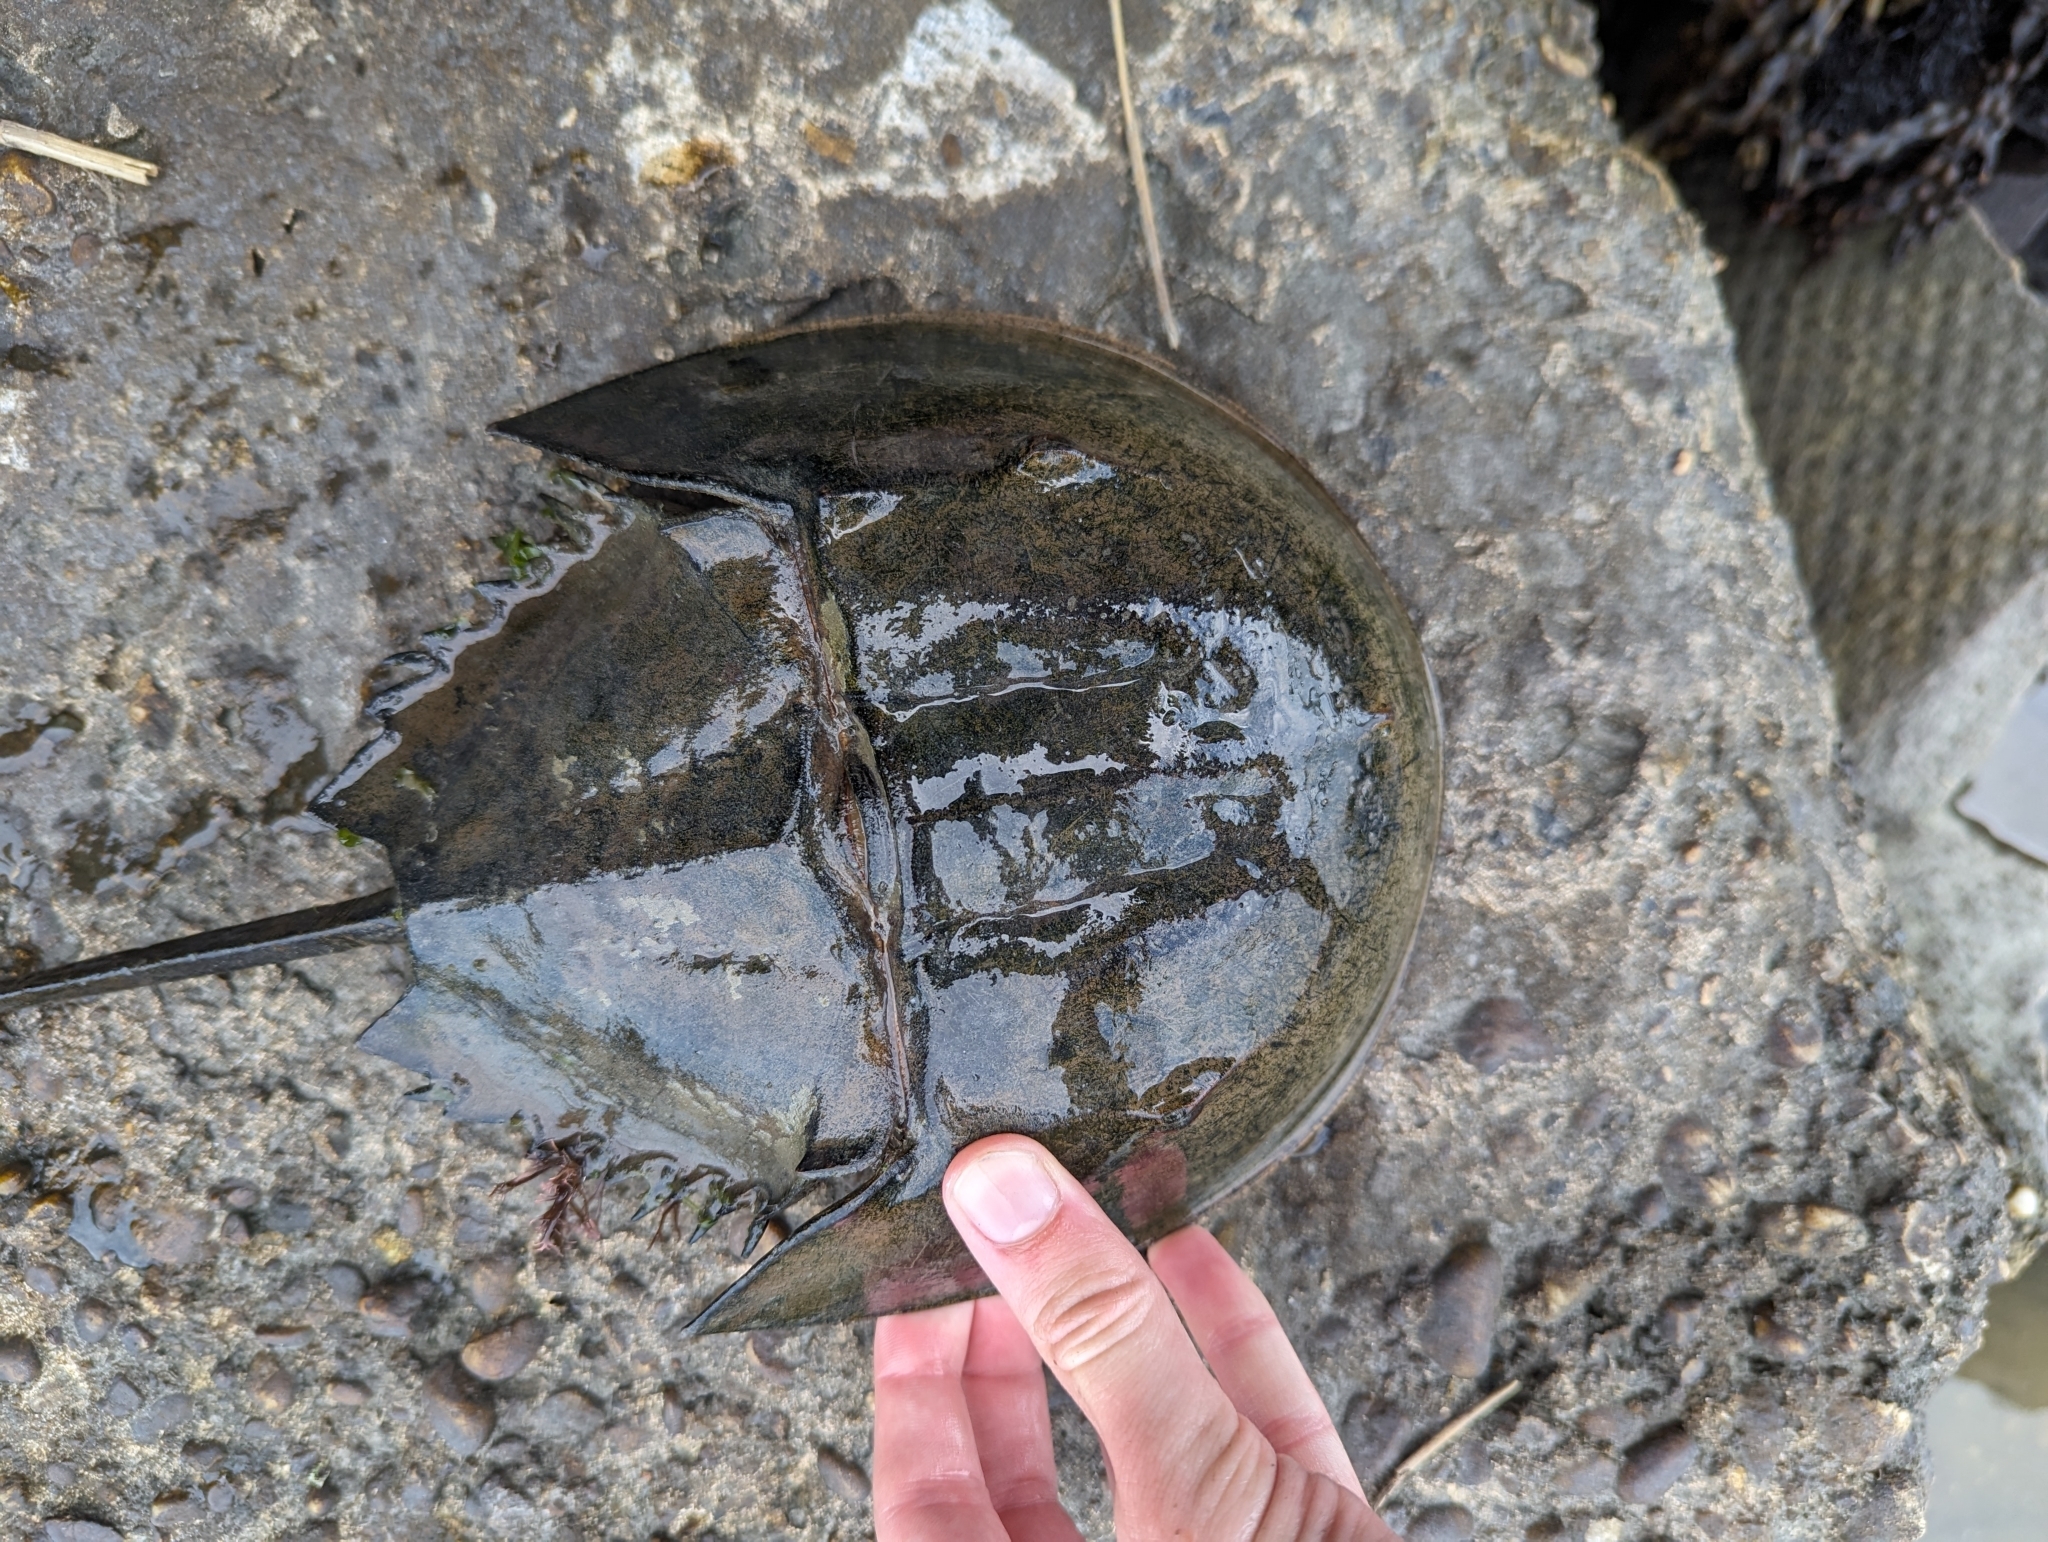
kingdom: Animalia
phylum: Arthropoda
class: Merostomata
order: Xiphosurida
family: Limulidae
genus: Limulus
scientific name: Limulus polyphemus
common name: Horseshoe crab
